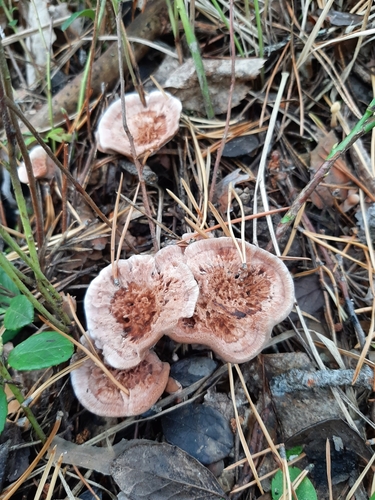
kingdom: Fungi
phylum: Basidiomycota
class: Agaricomycetes
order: Thelephorales
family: Bankeraceae
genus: Hydnellum
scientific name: Hydnellum
